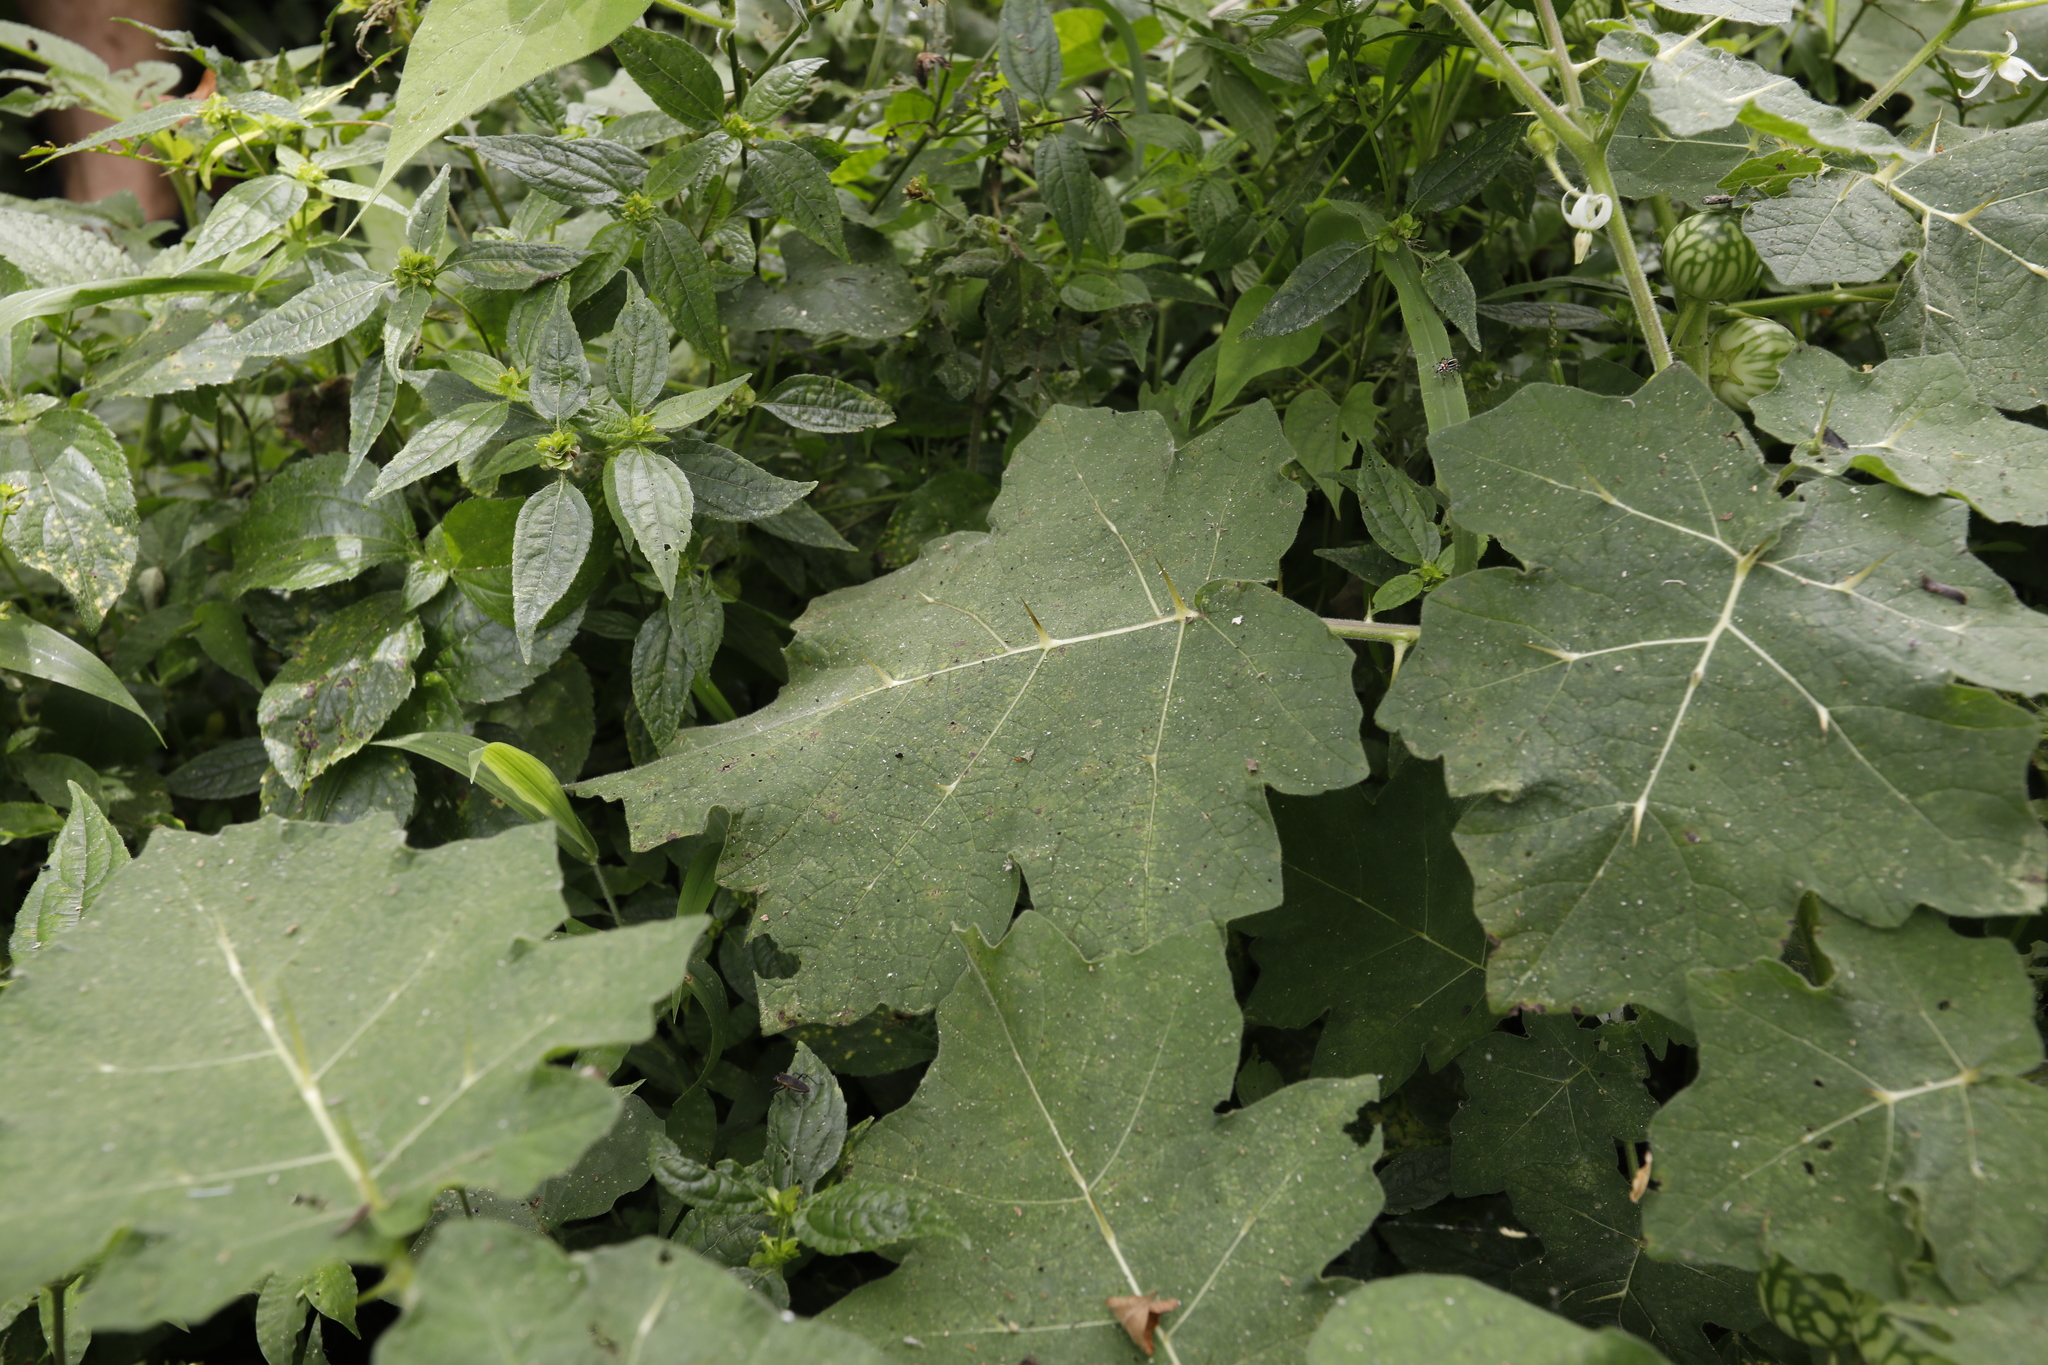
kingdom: Plantae
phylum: Tracheophyta
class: Magnoliopsida
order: Solanales
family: Solanaceae
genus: Solanum
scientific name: Solanum viarum
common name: Tropical soda apple
